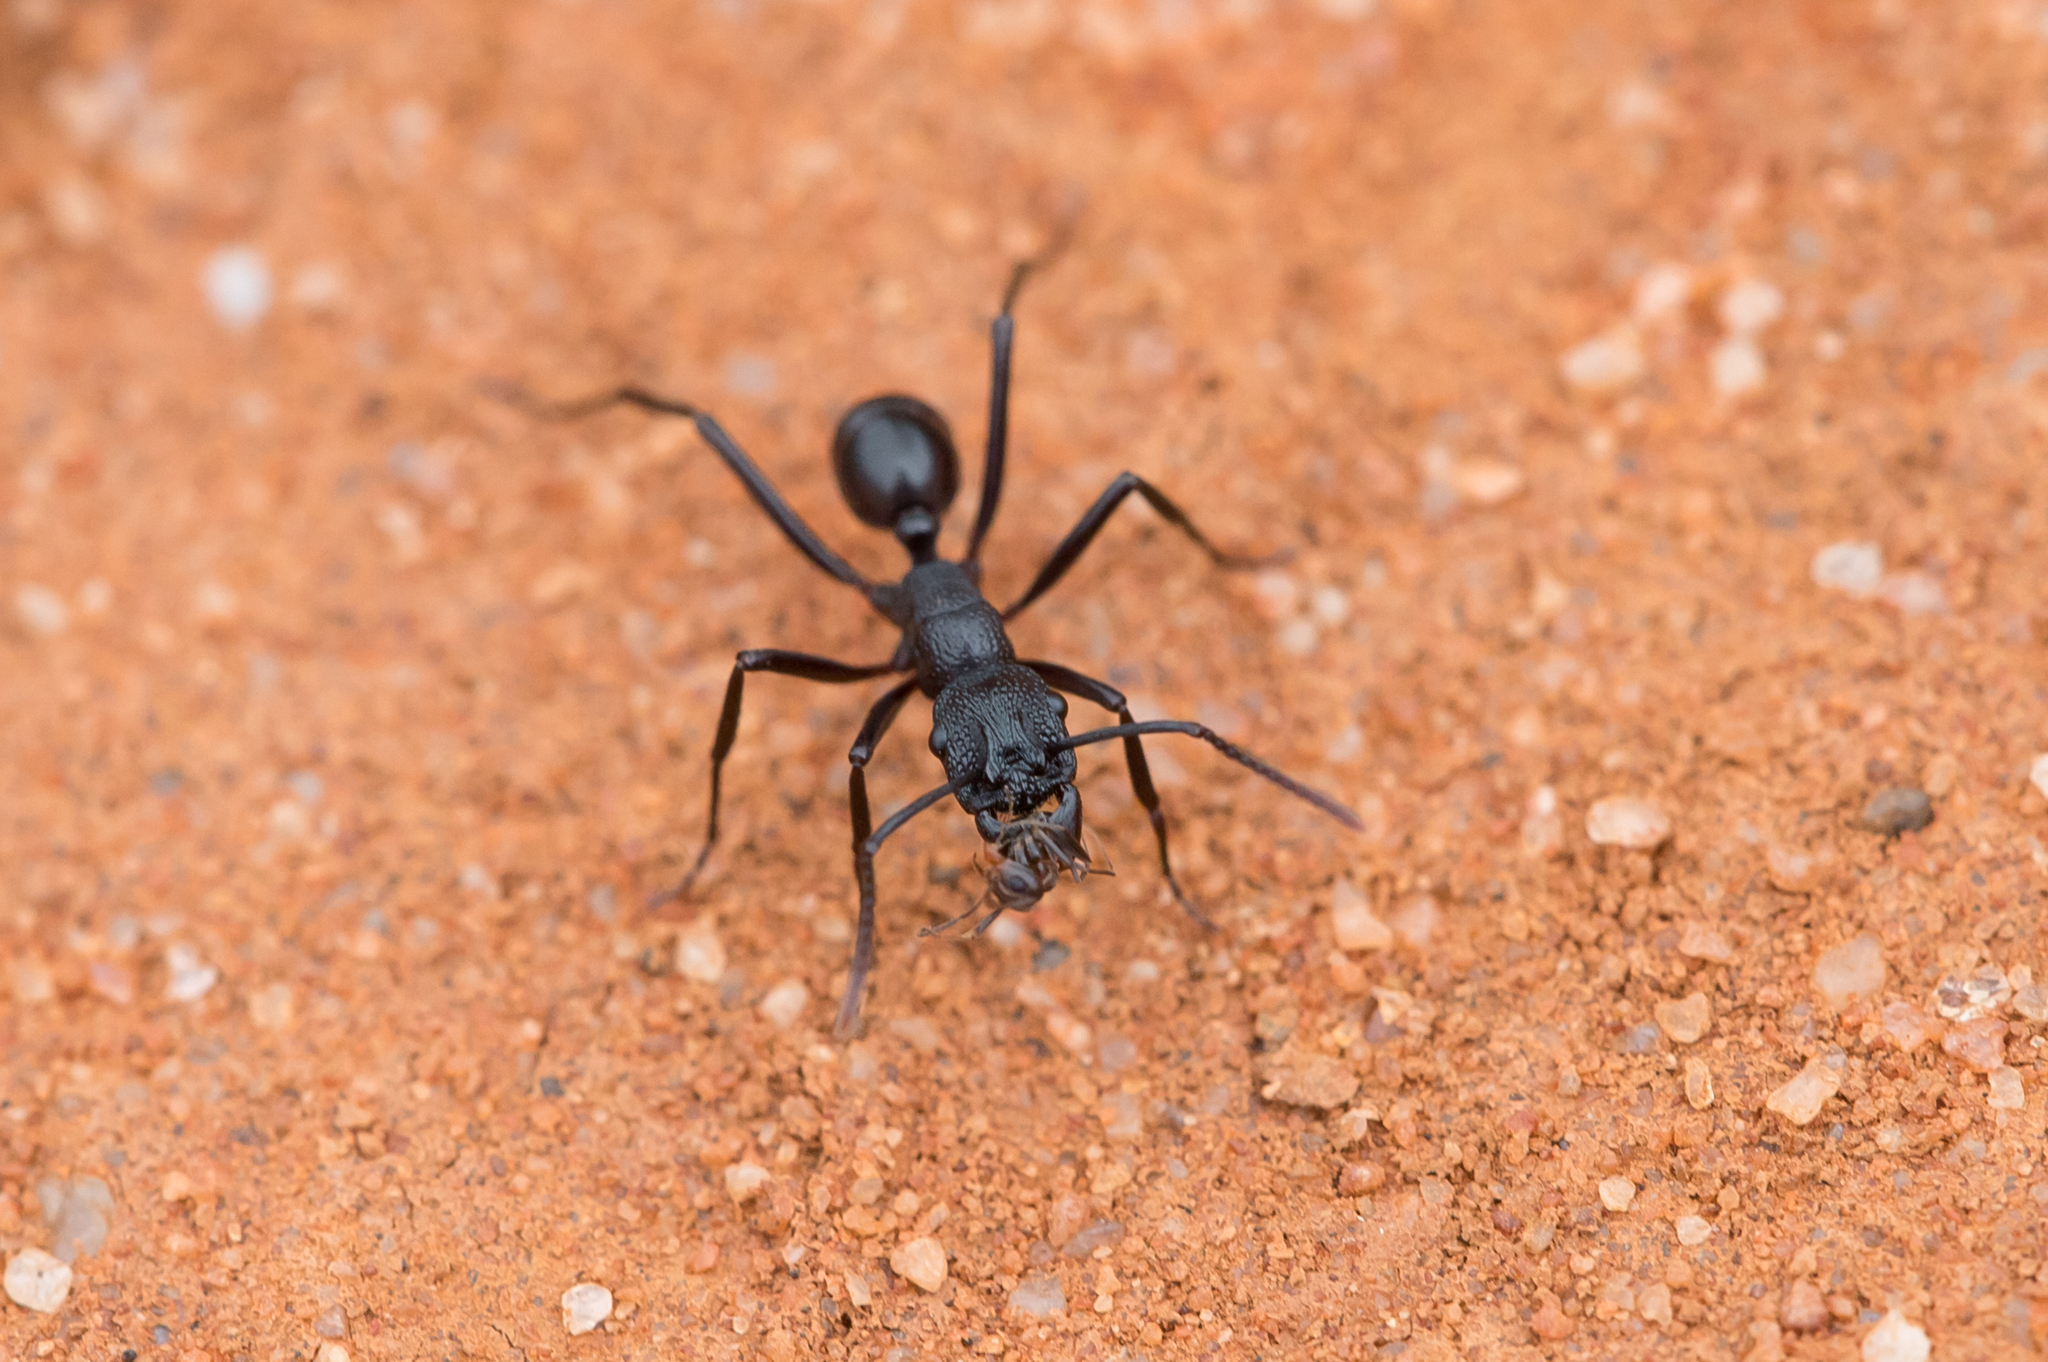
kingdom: Animalia
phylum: Arthropoda
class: Insecta
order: Hymenoptera
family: Formicidae
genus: Rhytidoponera
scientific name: Rhytidoponera maniae
